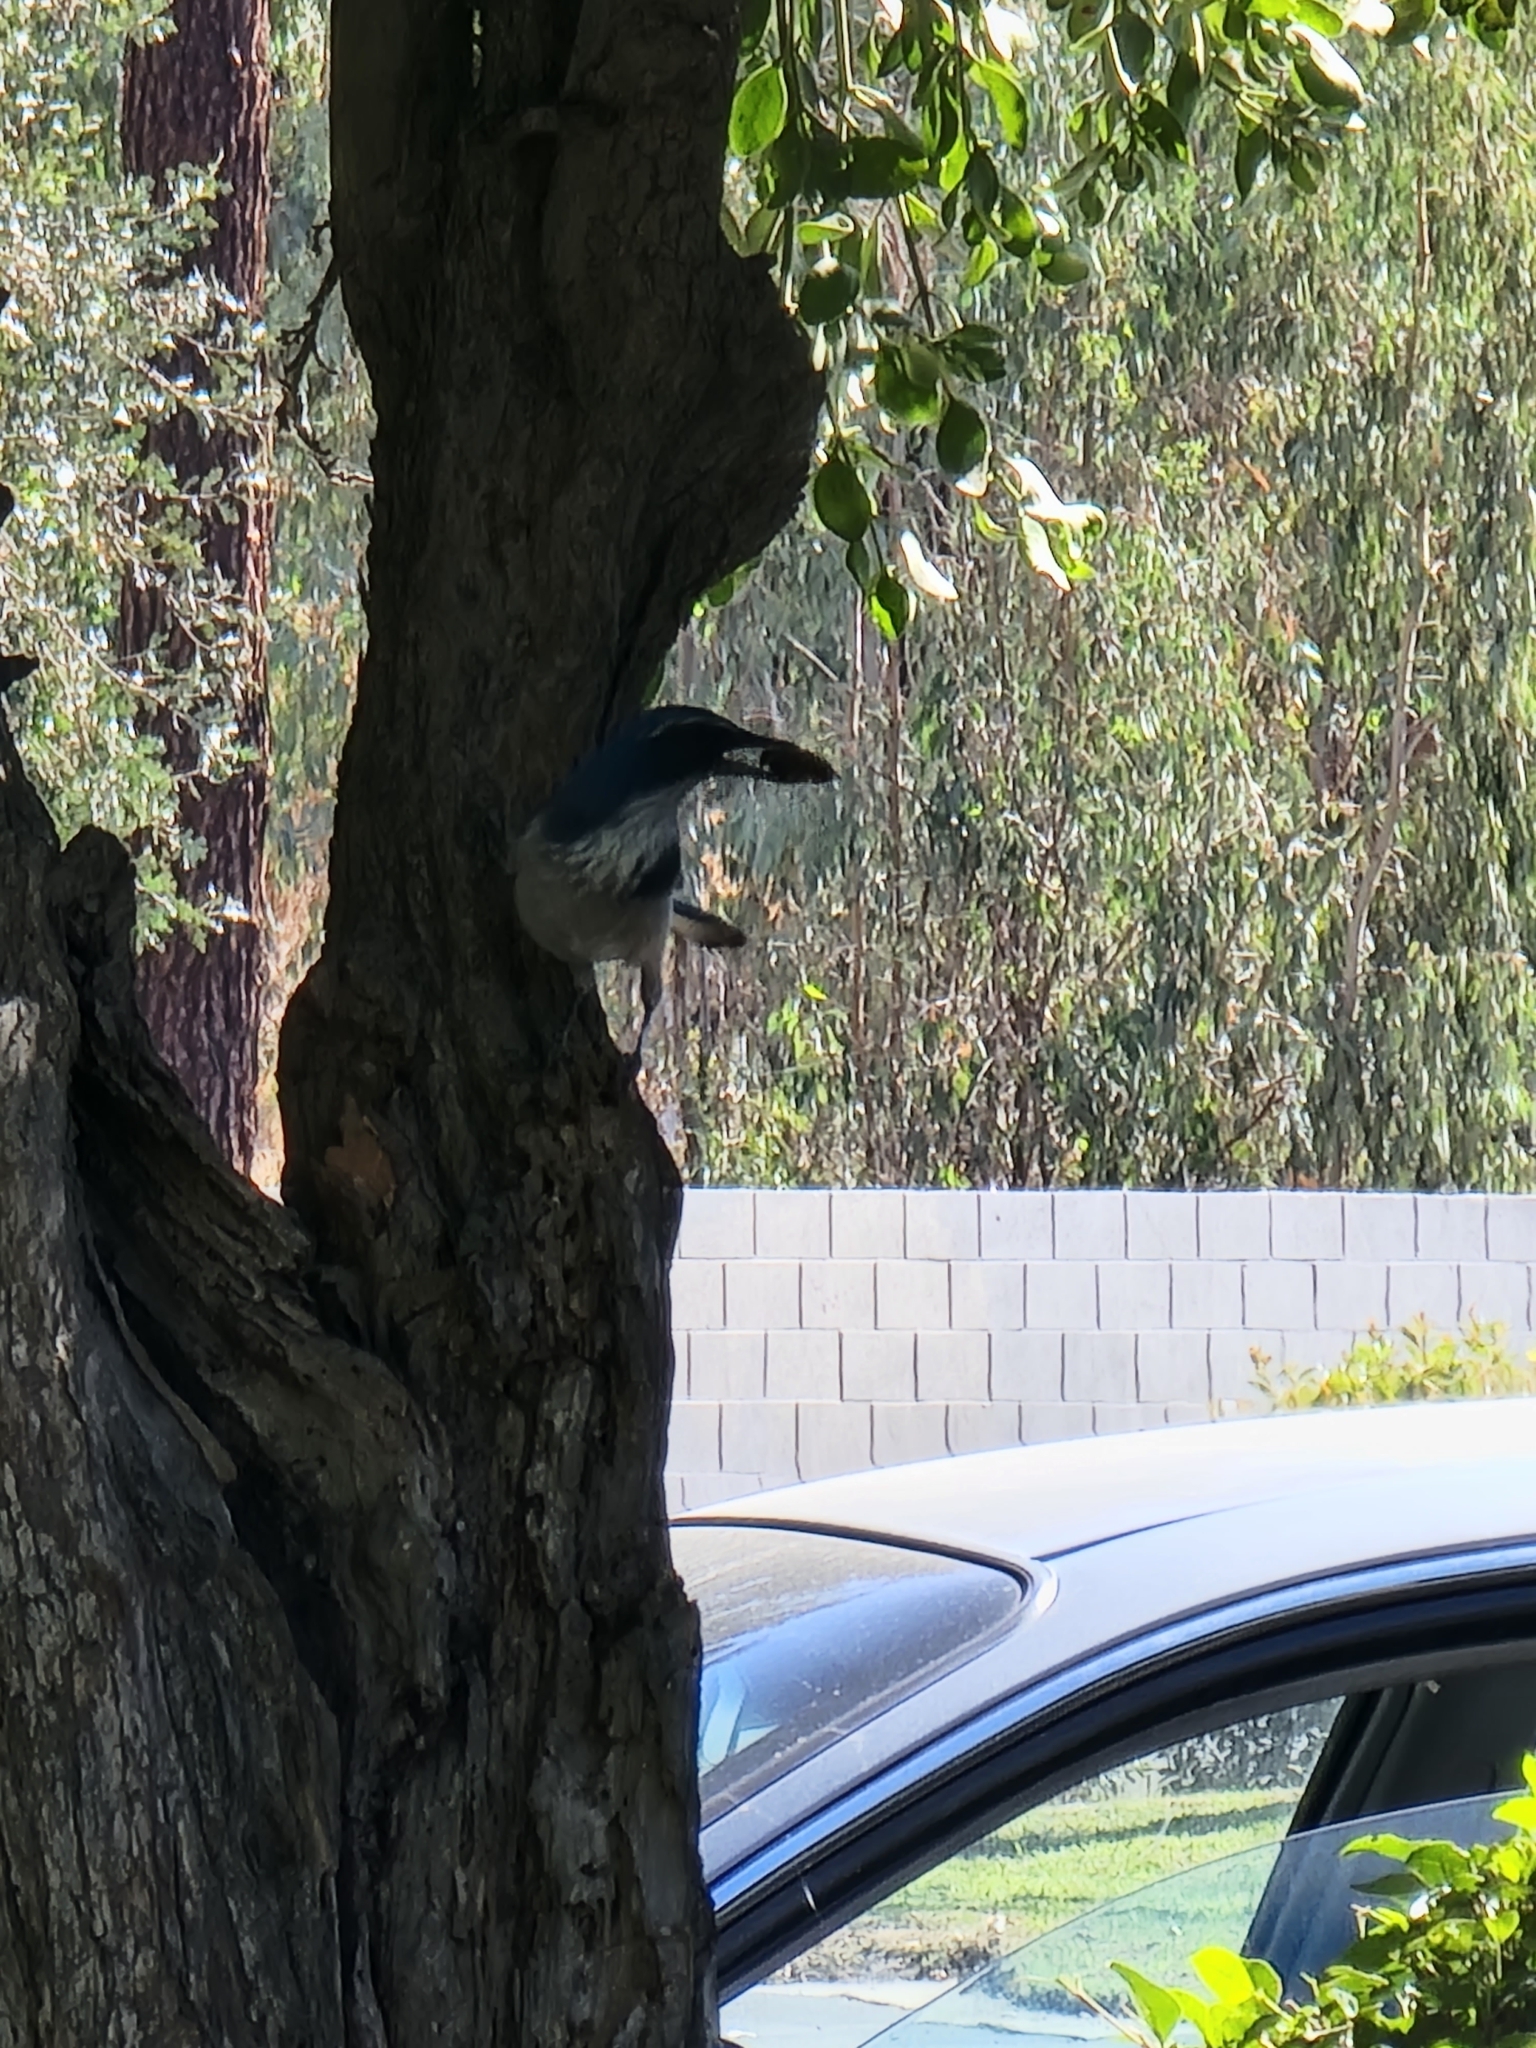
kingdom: Animalia
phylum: Chordata
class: Aves
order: Passeriformes
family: Corvidae
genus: Aphelocoma
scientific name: Aphelocoma californica
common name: California scrub-jay
